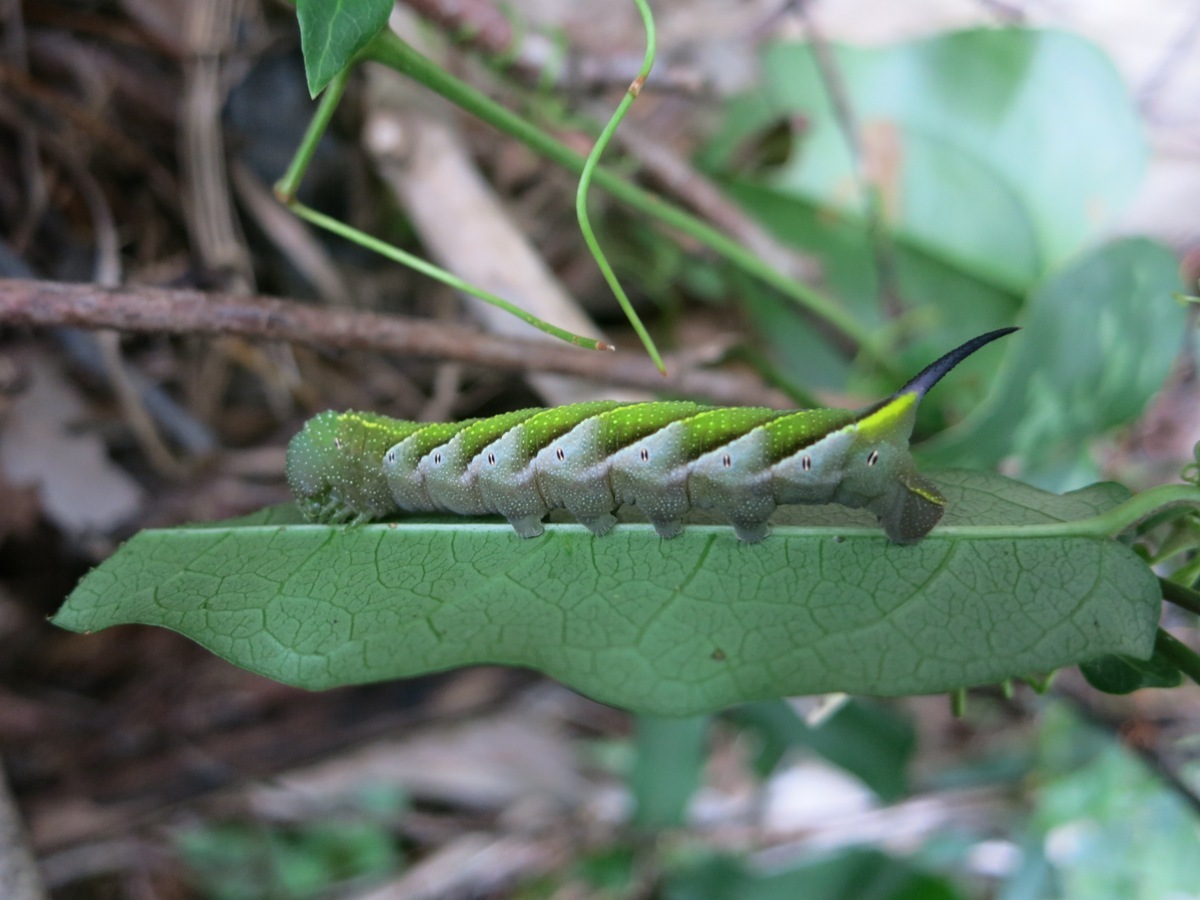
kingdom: Animalia
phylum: Arthropoda
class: Insecta
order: Lepidoptera
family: Sphingidae
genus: Paratrea
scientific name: Paratrea plebeja
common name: Plebian sphinx
